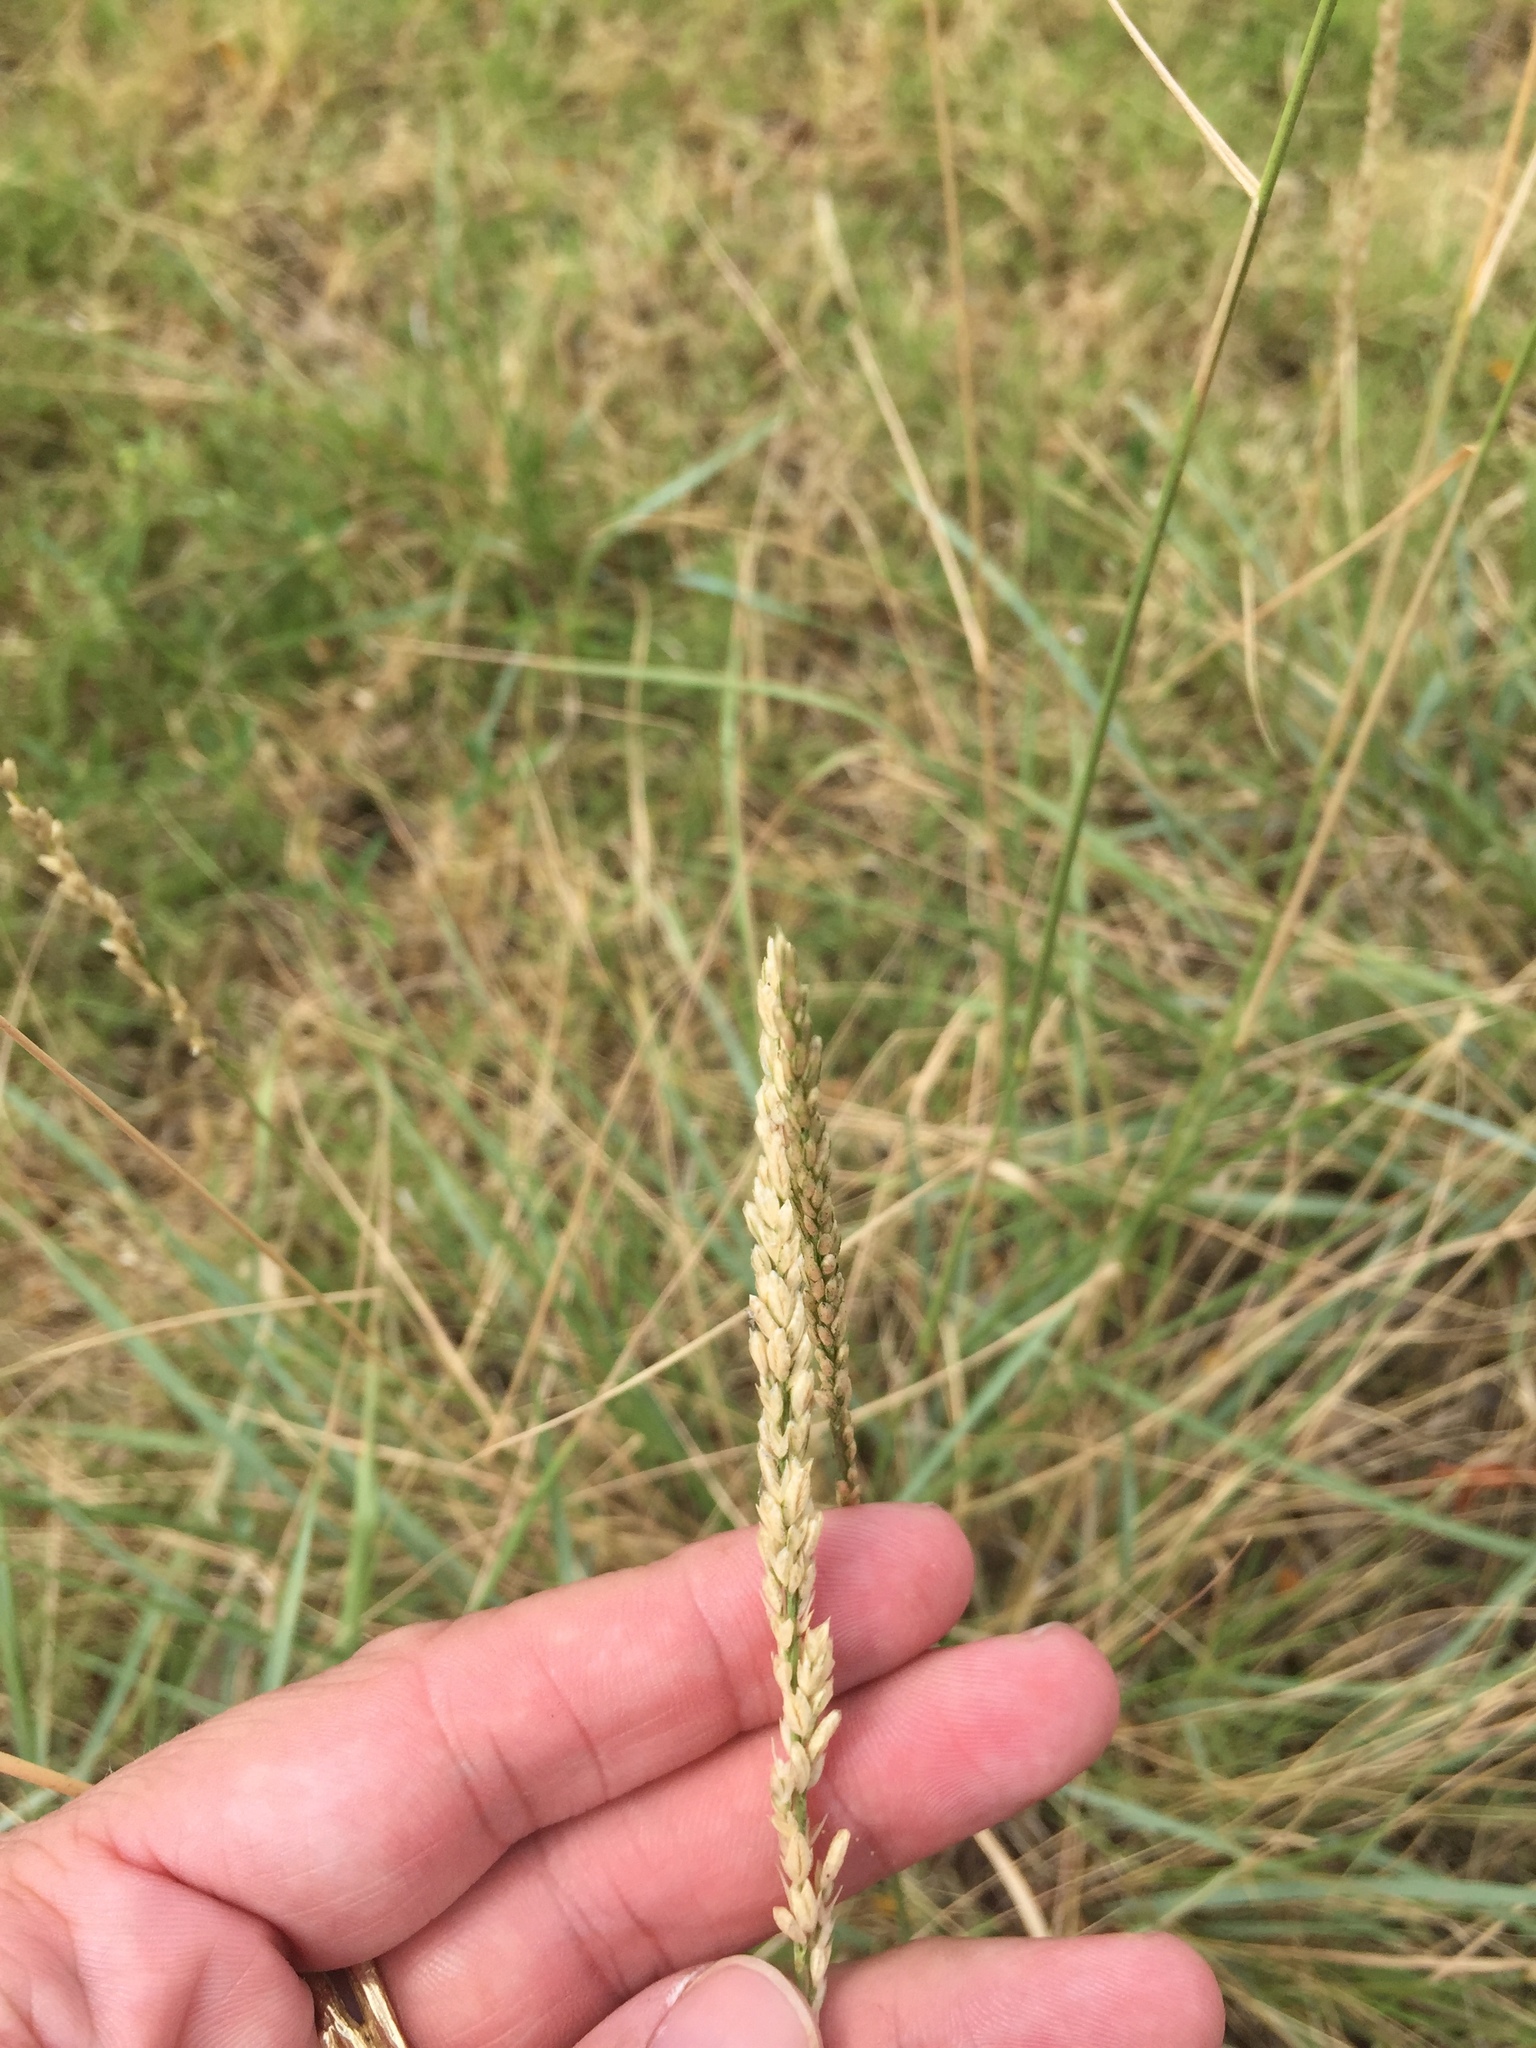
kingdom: Plantae
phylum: Tracheophyta
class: Liliopsida
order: Poales
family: Poaceae
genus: Tridens
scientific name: Tridens albescens
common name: White tridens
